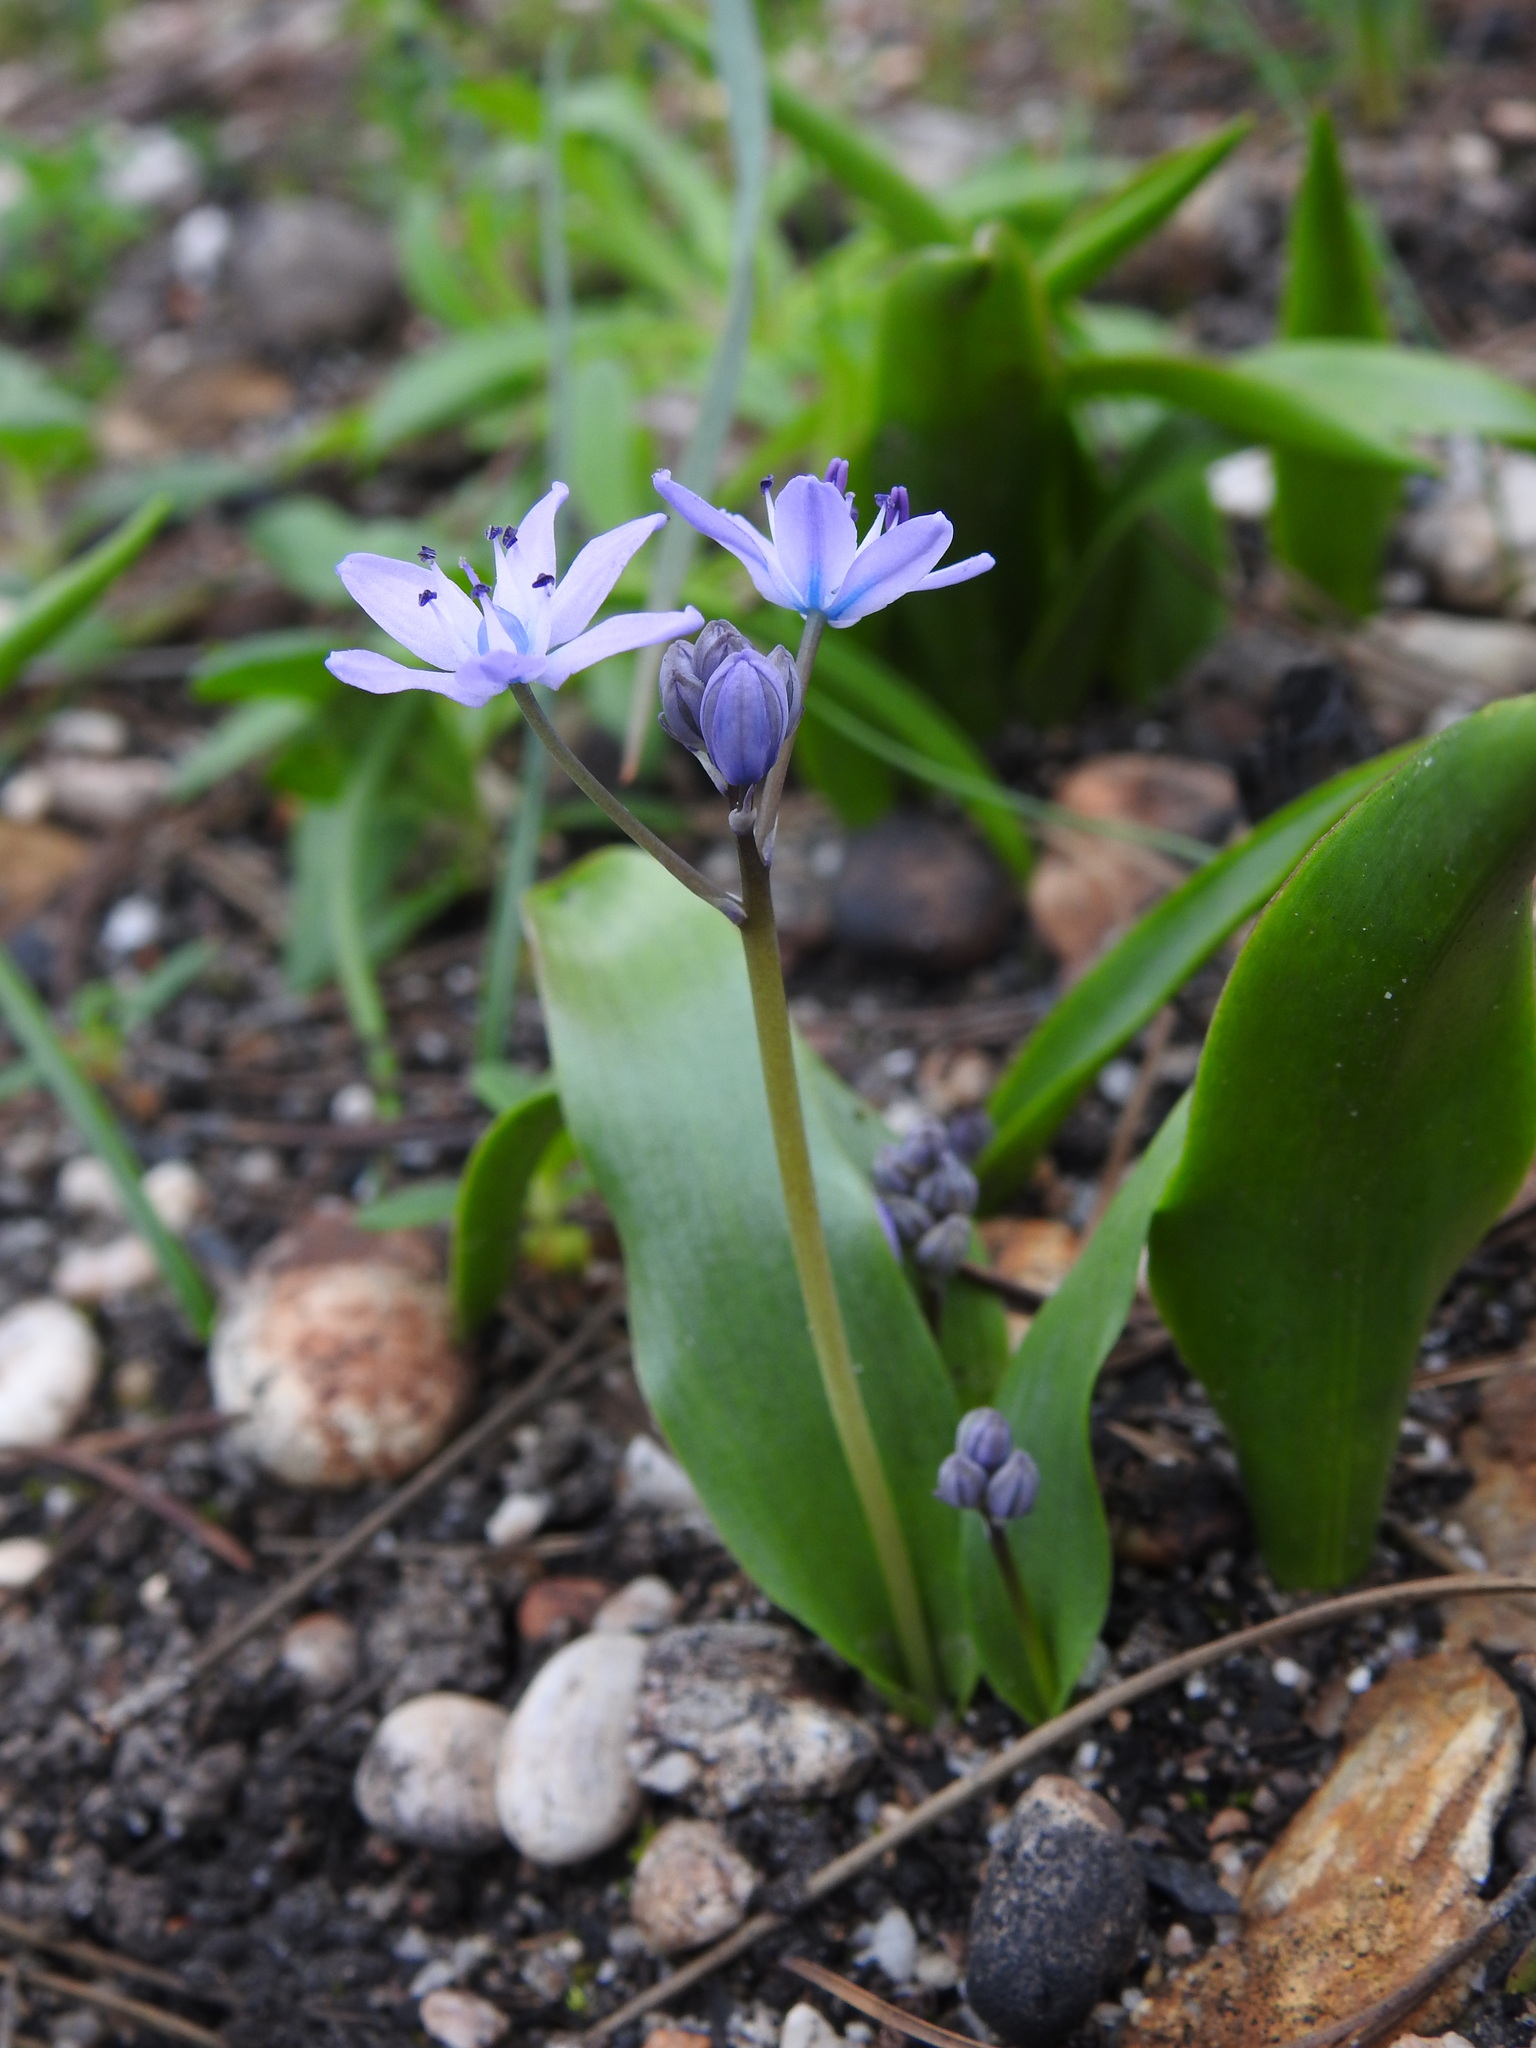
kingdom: Plantae
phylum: Tracheophyta
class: Liliopsida
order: Asparagales
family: Asparagaceae
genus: Scilla
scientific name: Scilla monophyllos
